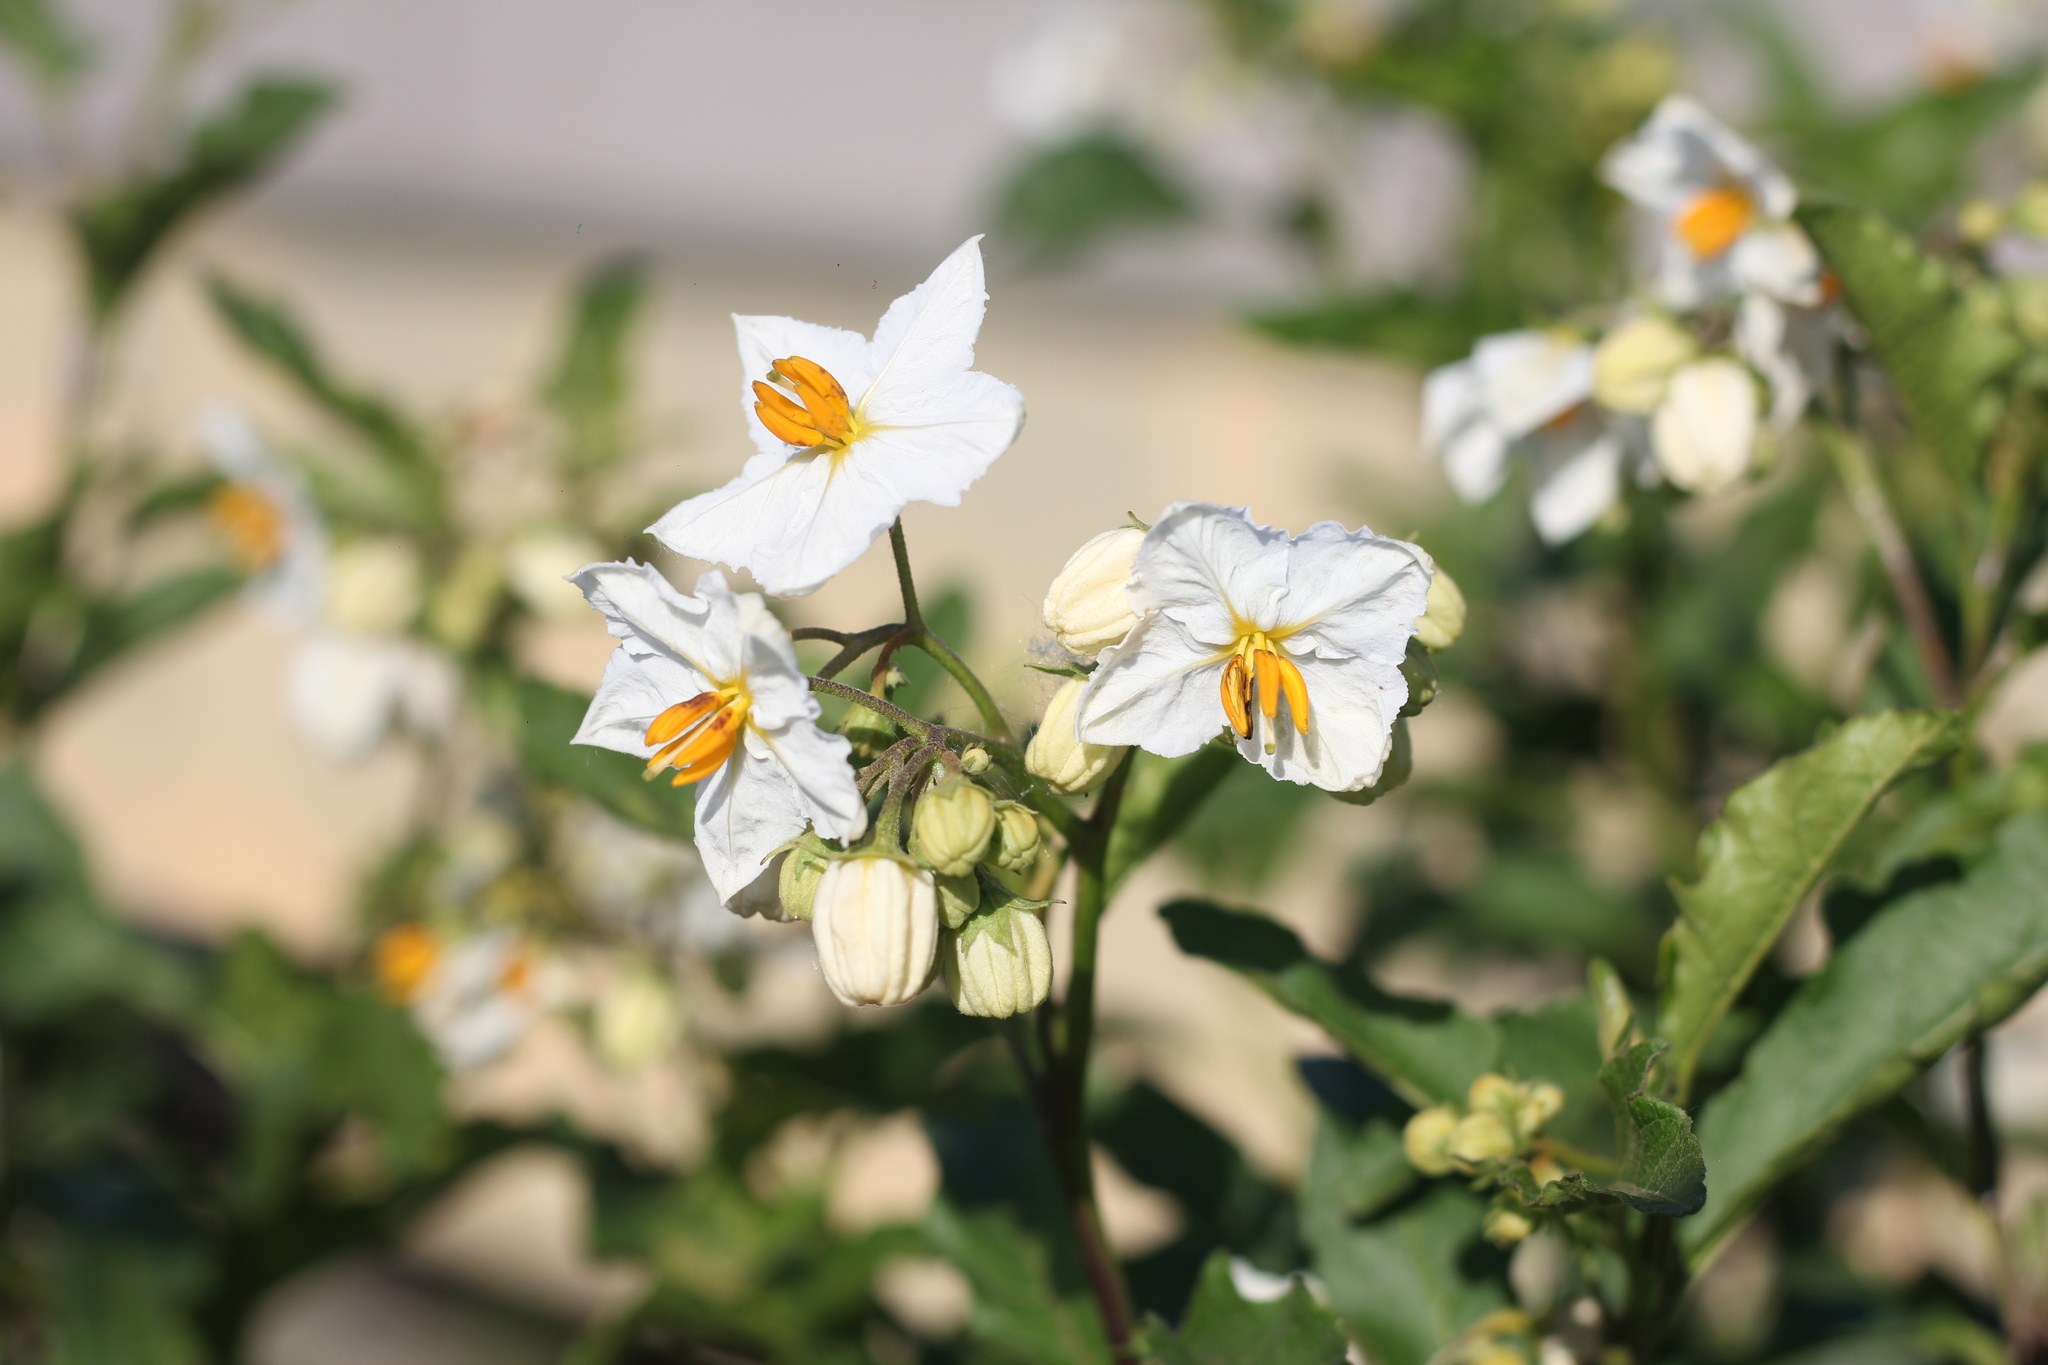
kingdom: Plantae
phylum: Tracheophyta
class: Magnoliopsida
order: Solanales
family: Solanaceae
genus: Solanum
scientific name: Solanum bonariense
